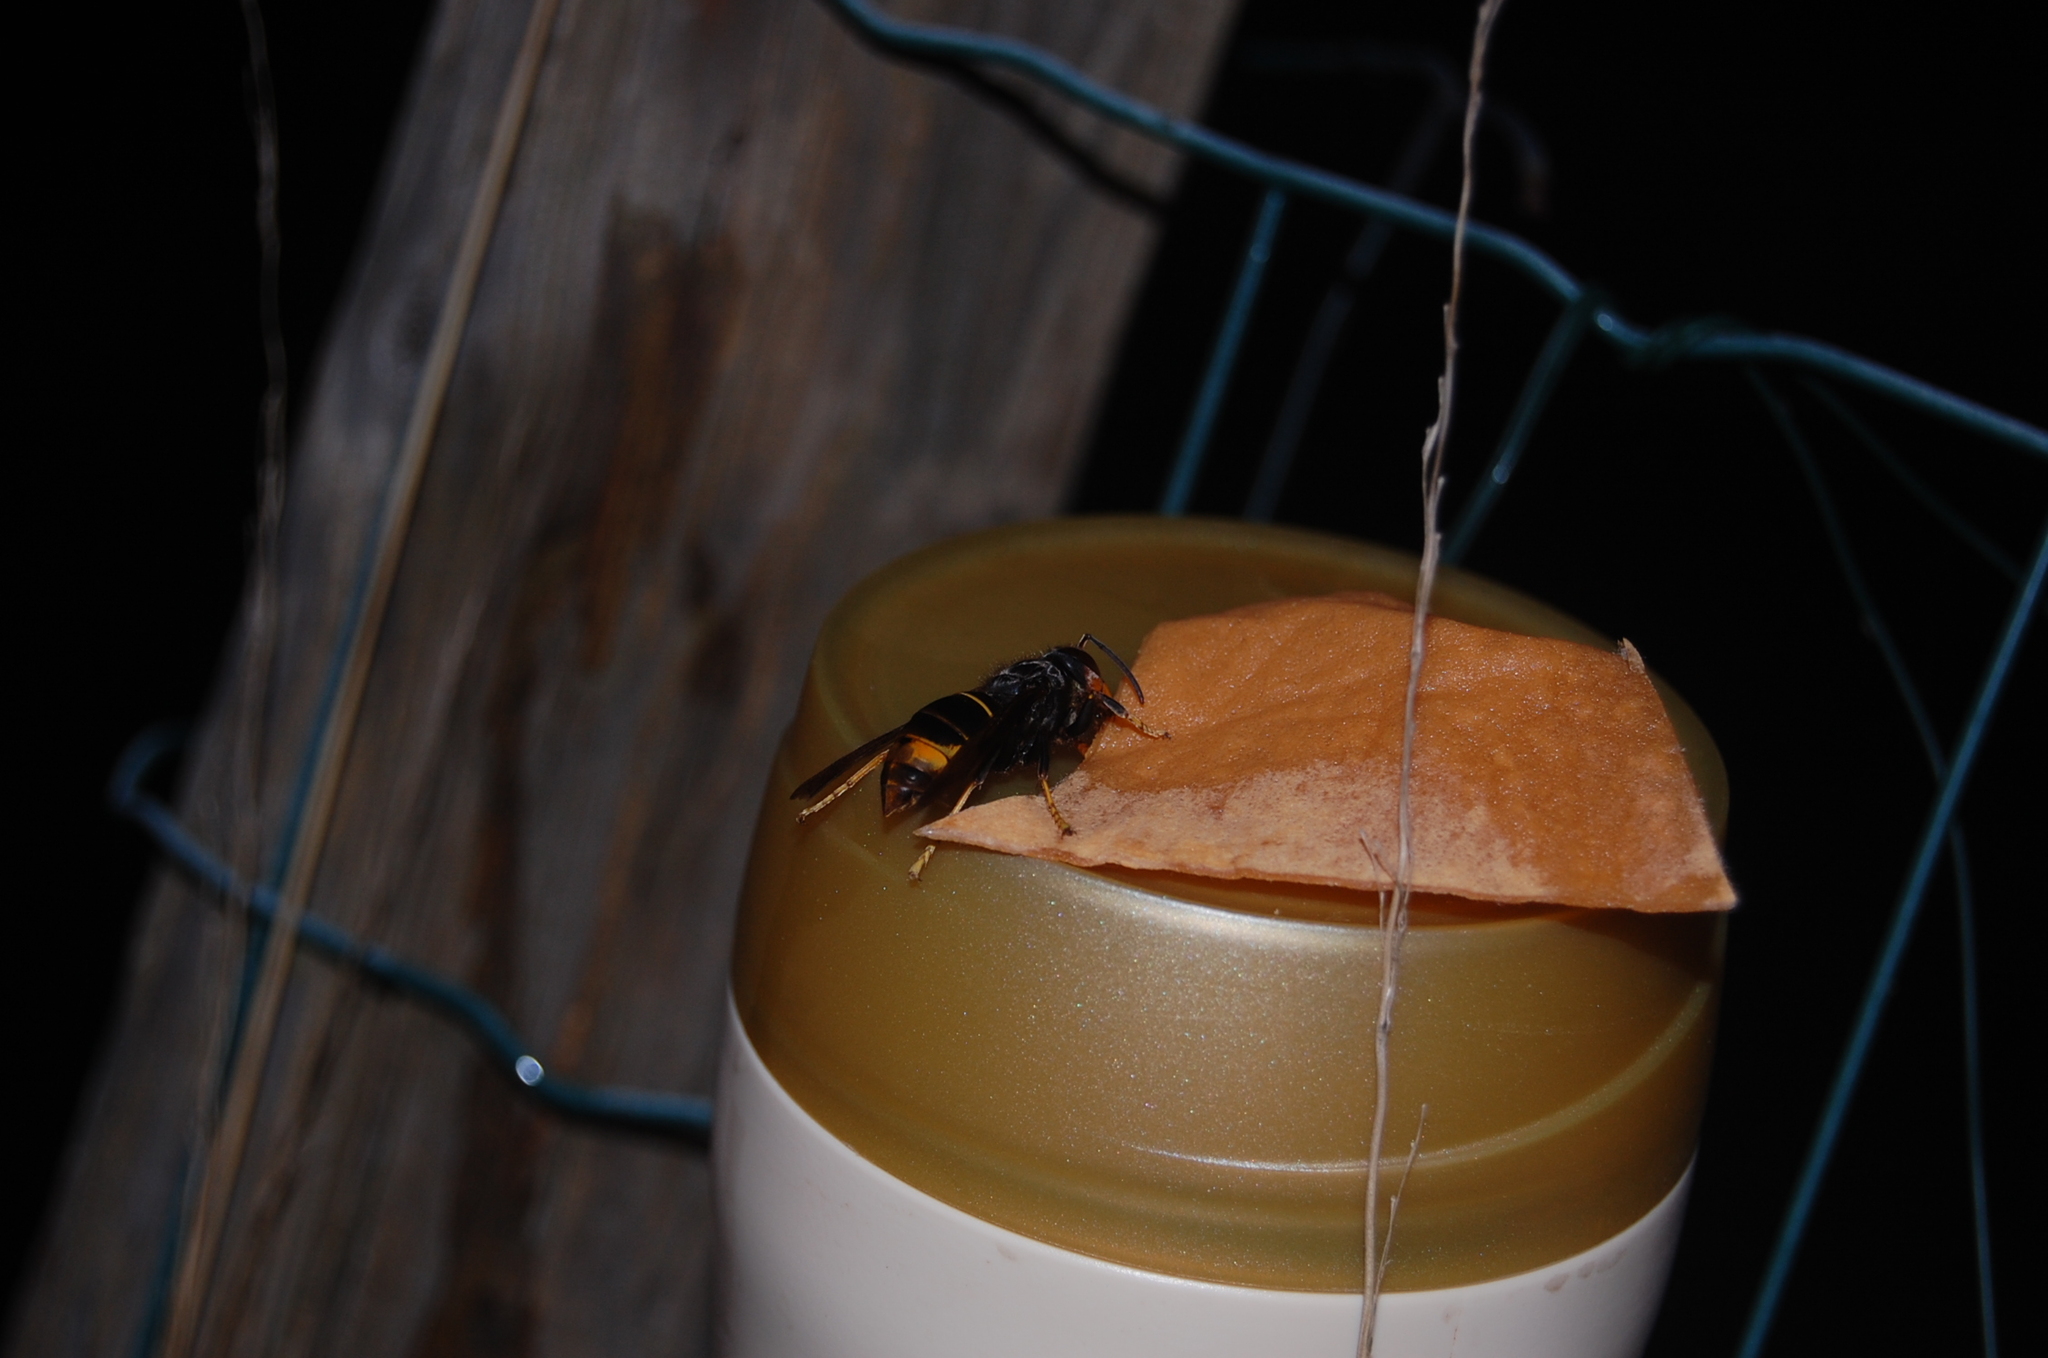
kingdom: Animalia
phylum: Arthropoda
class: Insecta
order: Hymenoptera
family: Vespidae
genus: Vespa
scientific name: Vespa velutina
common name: Asian hornet
